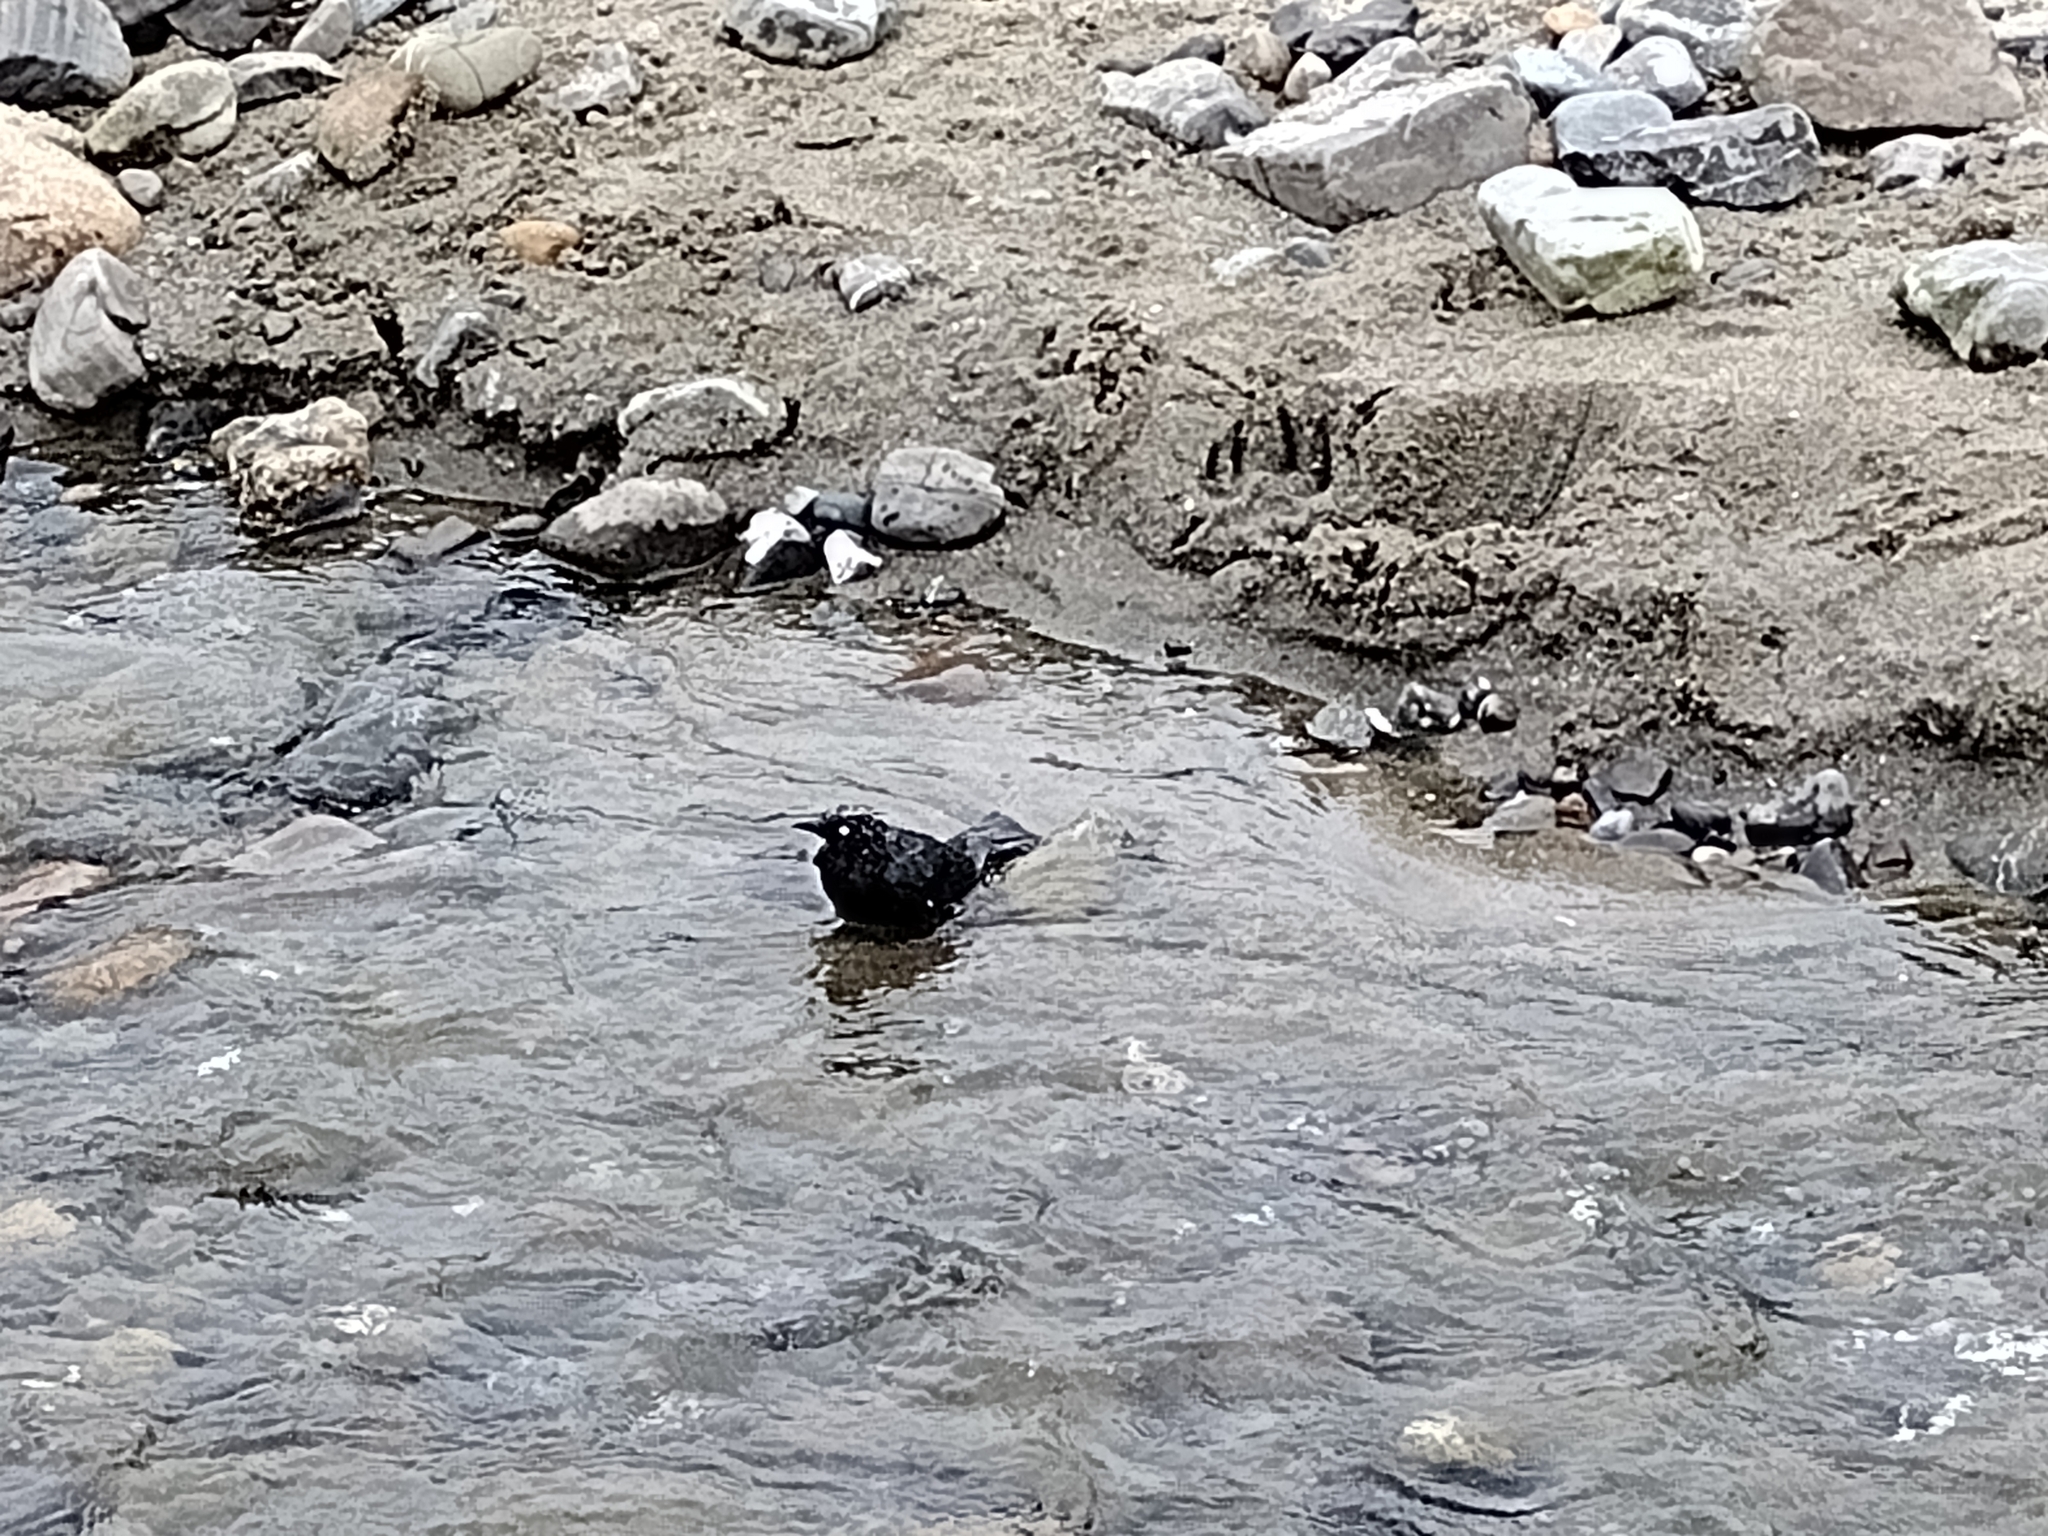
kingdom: Animalia
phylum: Chordata
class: Aves
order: Passeriformes
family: Icteridae
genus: Euphagus
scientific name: Euphagus cyanocephalus
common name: Brewer's blackbird
